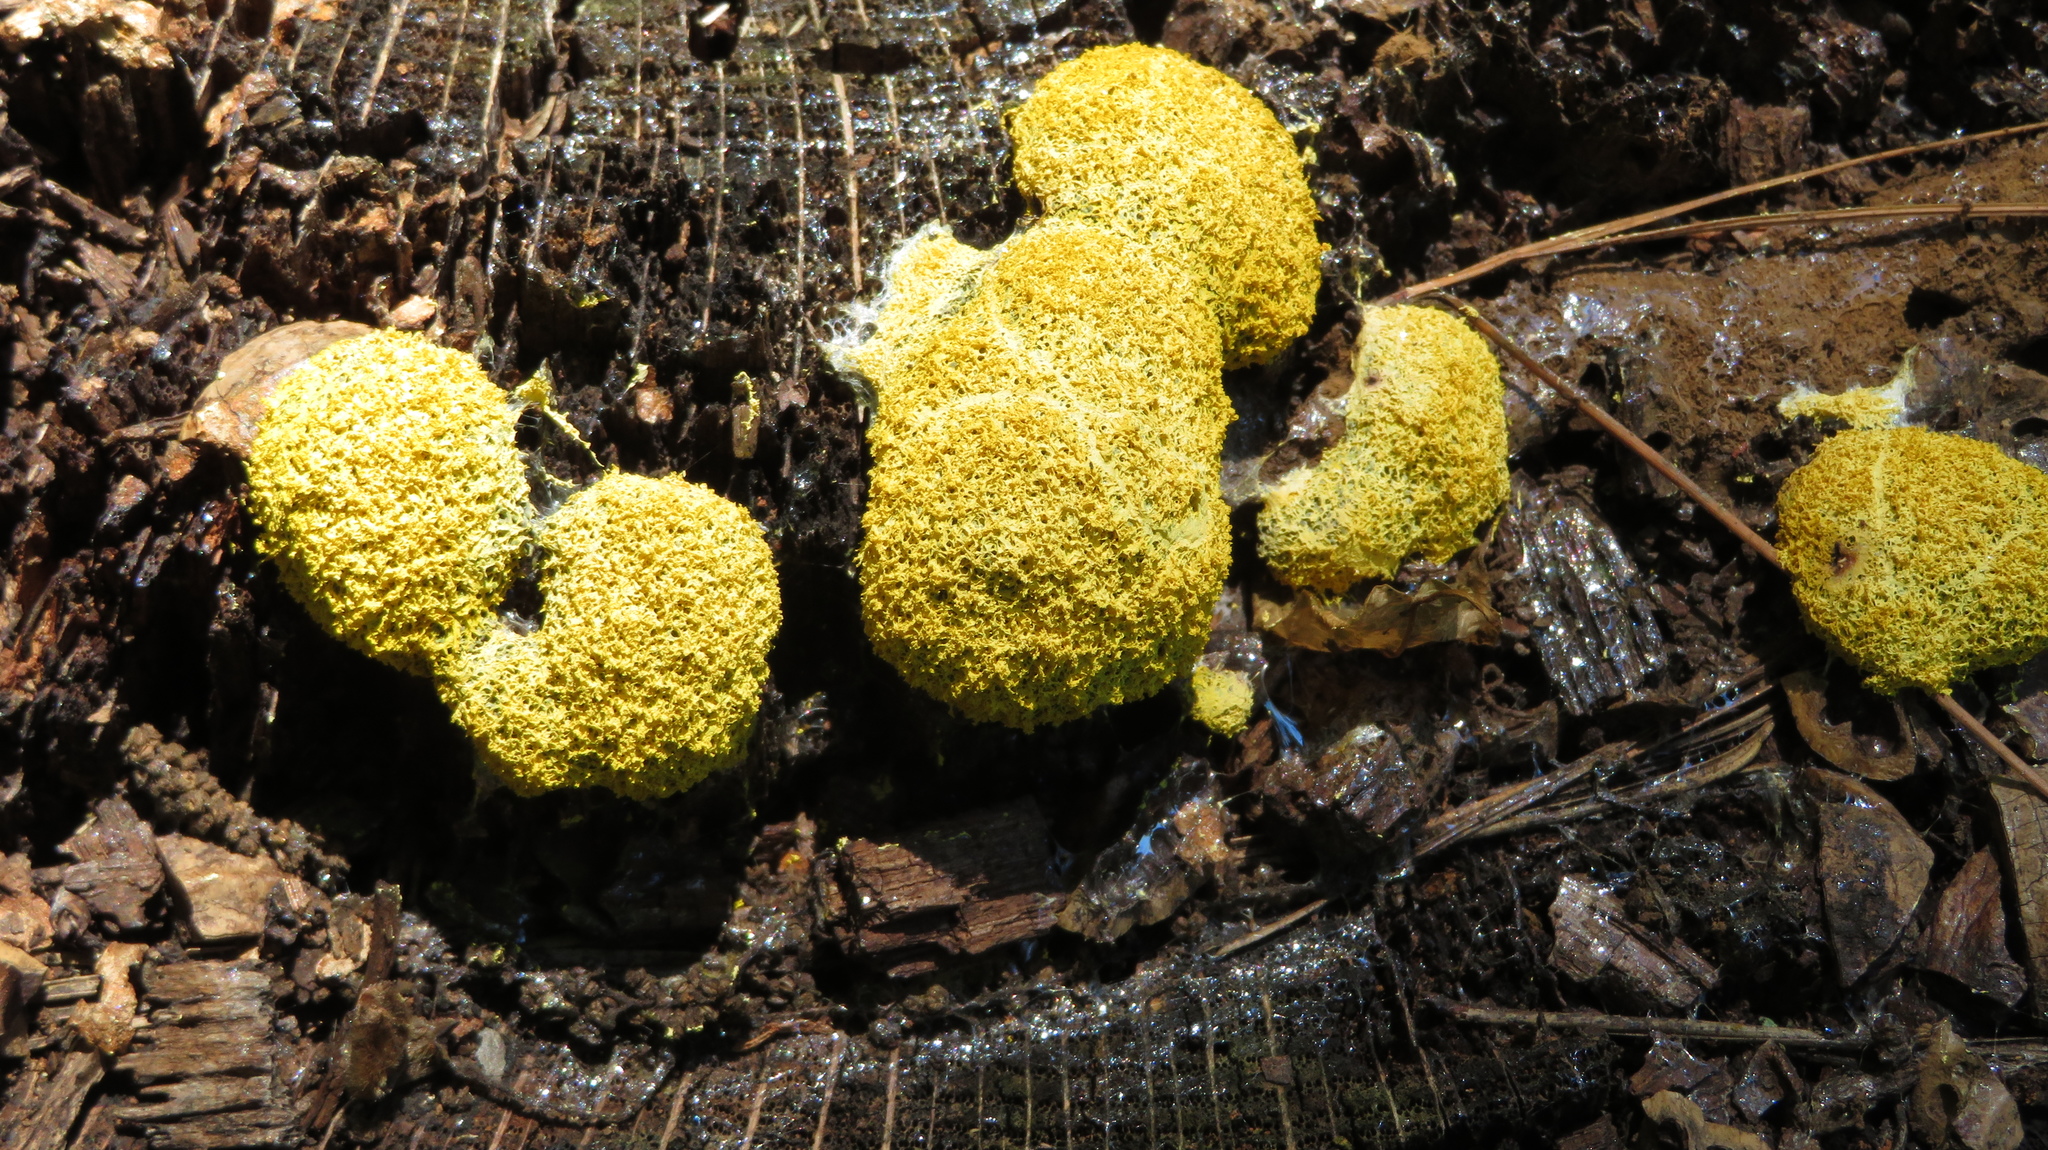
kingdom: Protozoa
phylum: Mycetozoa
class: Myxomycetes
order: Physarales
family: Physaraceae
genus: Fuligo
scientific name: Fuligo septica
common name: Dog vomit slime mold
